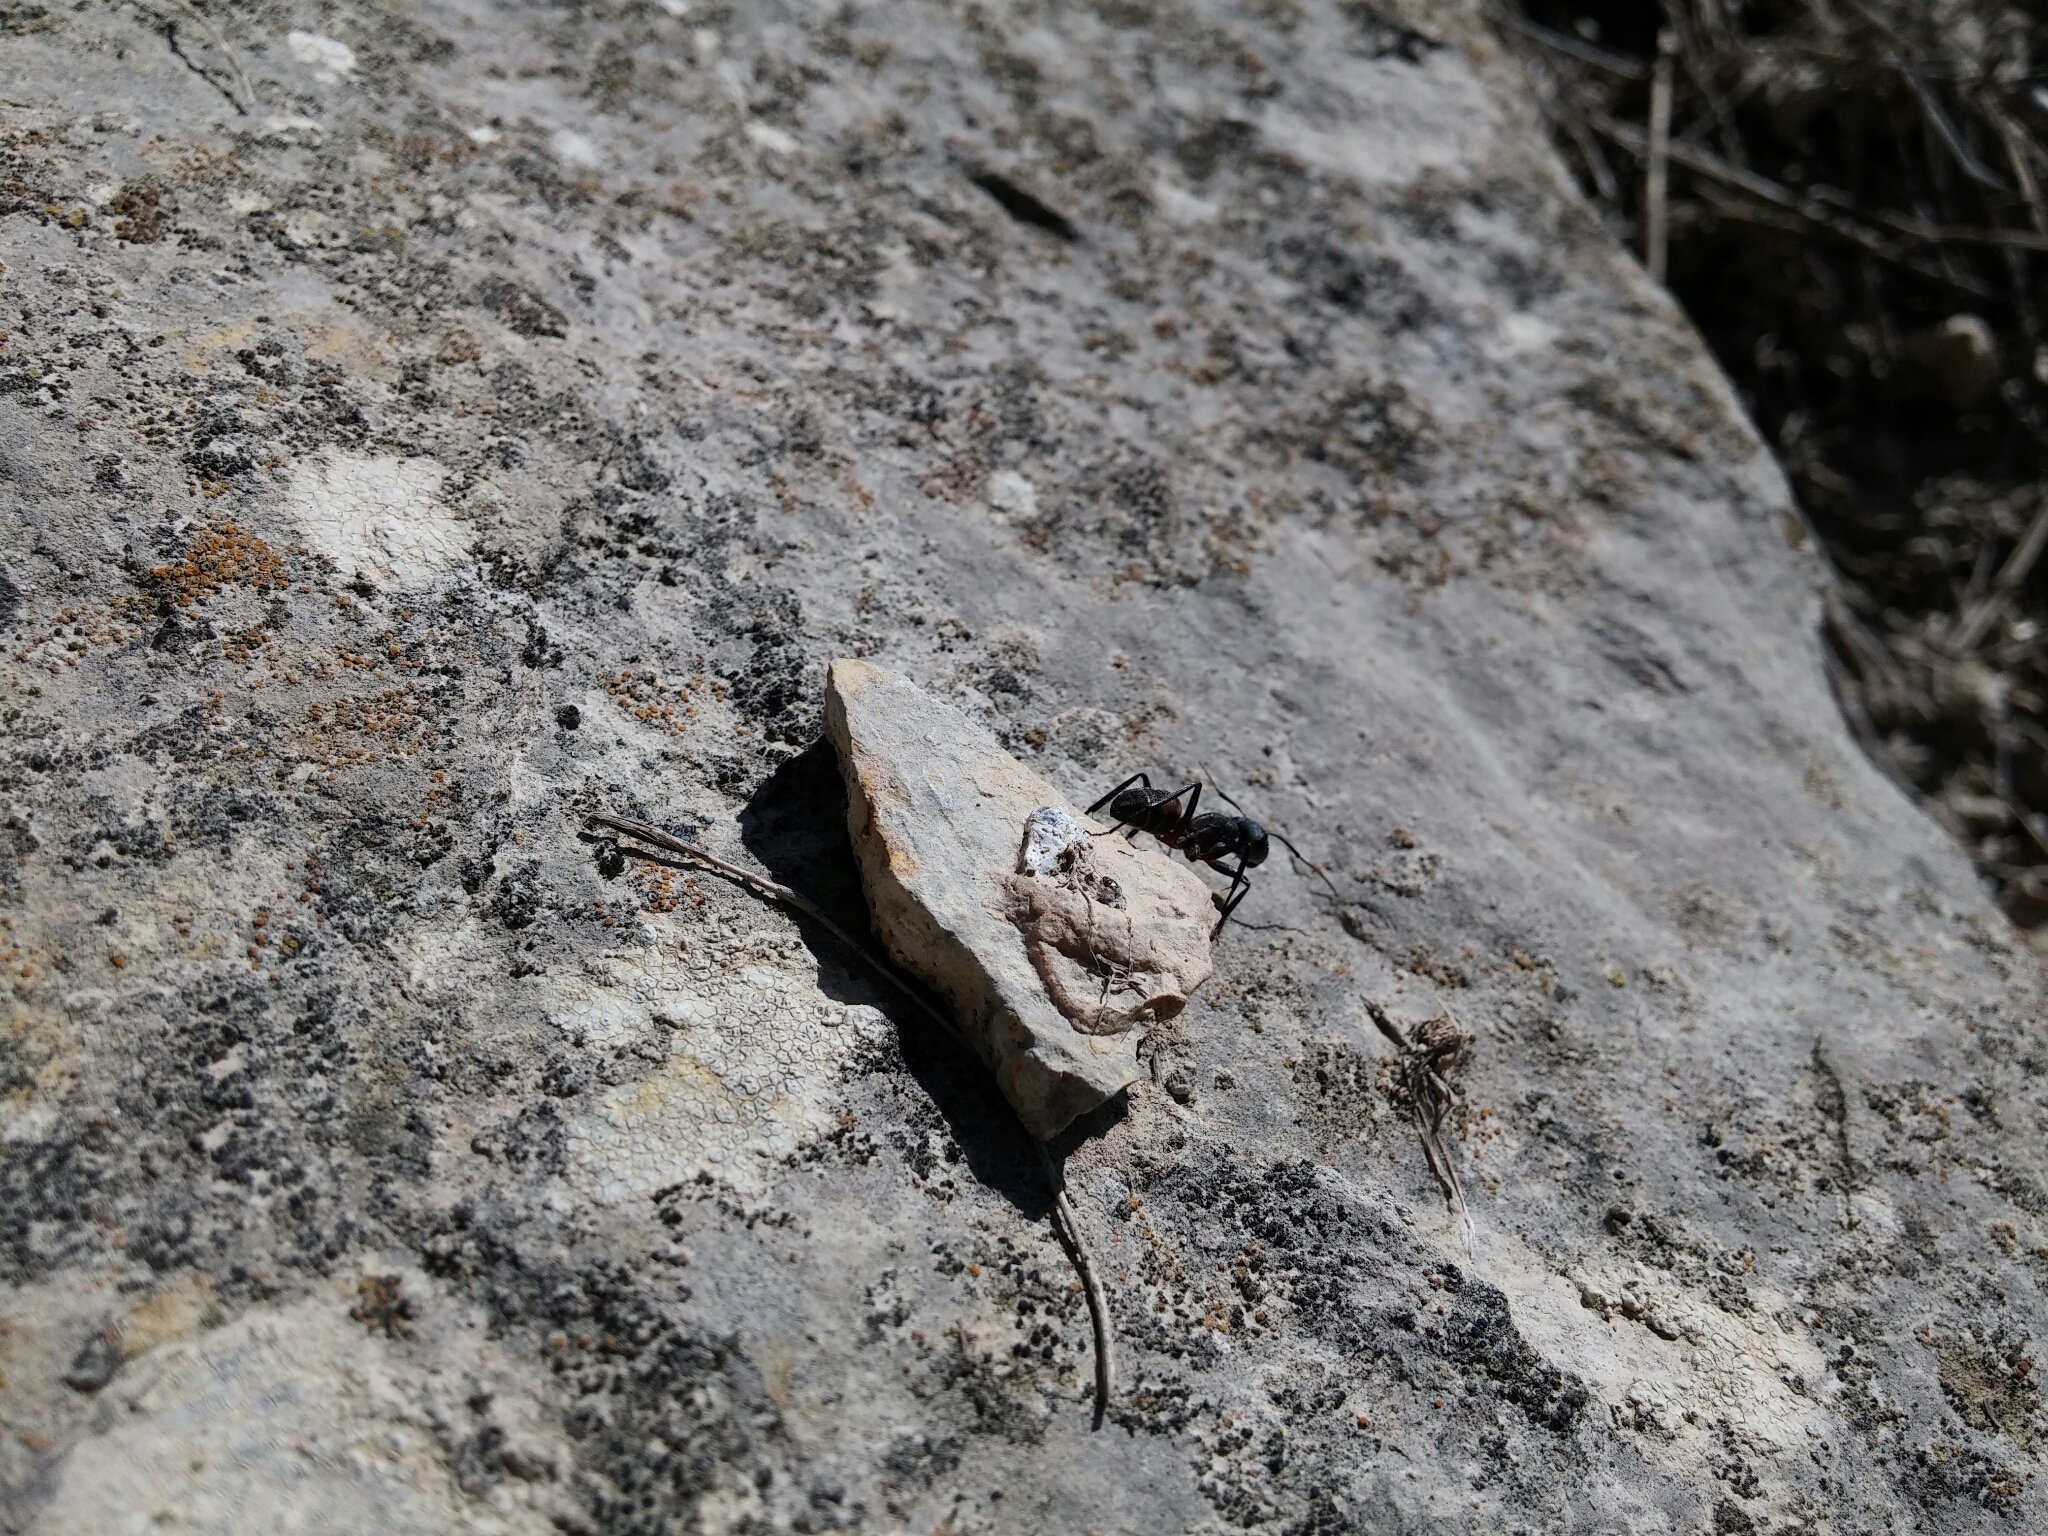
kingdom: Animalia
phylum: Arthropoda
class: Insecta
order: Hymenoptera
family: Formicidae
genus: Camponotus
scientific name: Camponotus cruentatus
